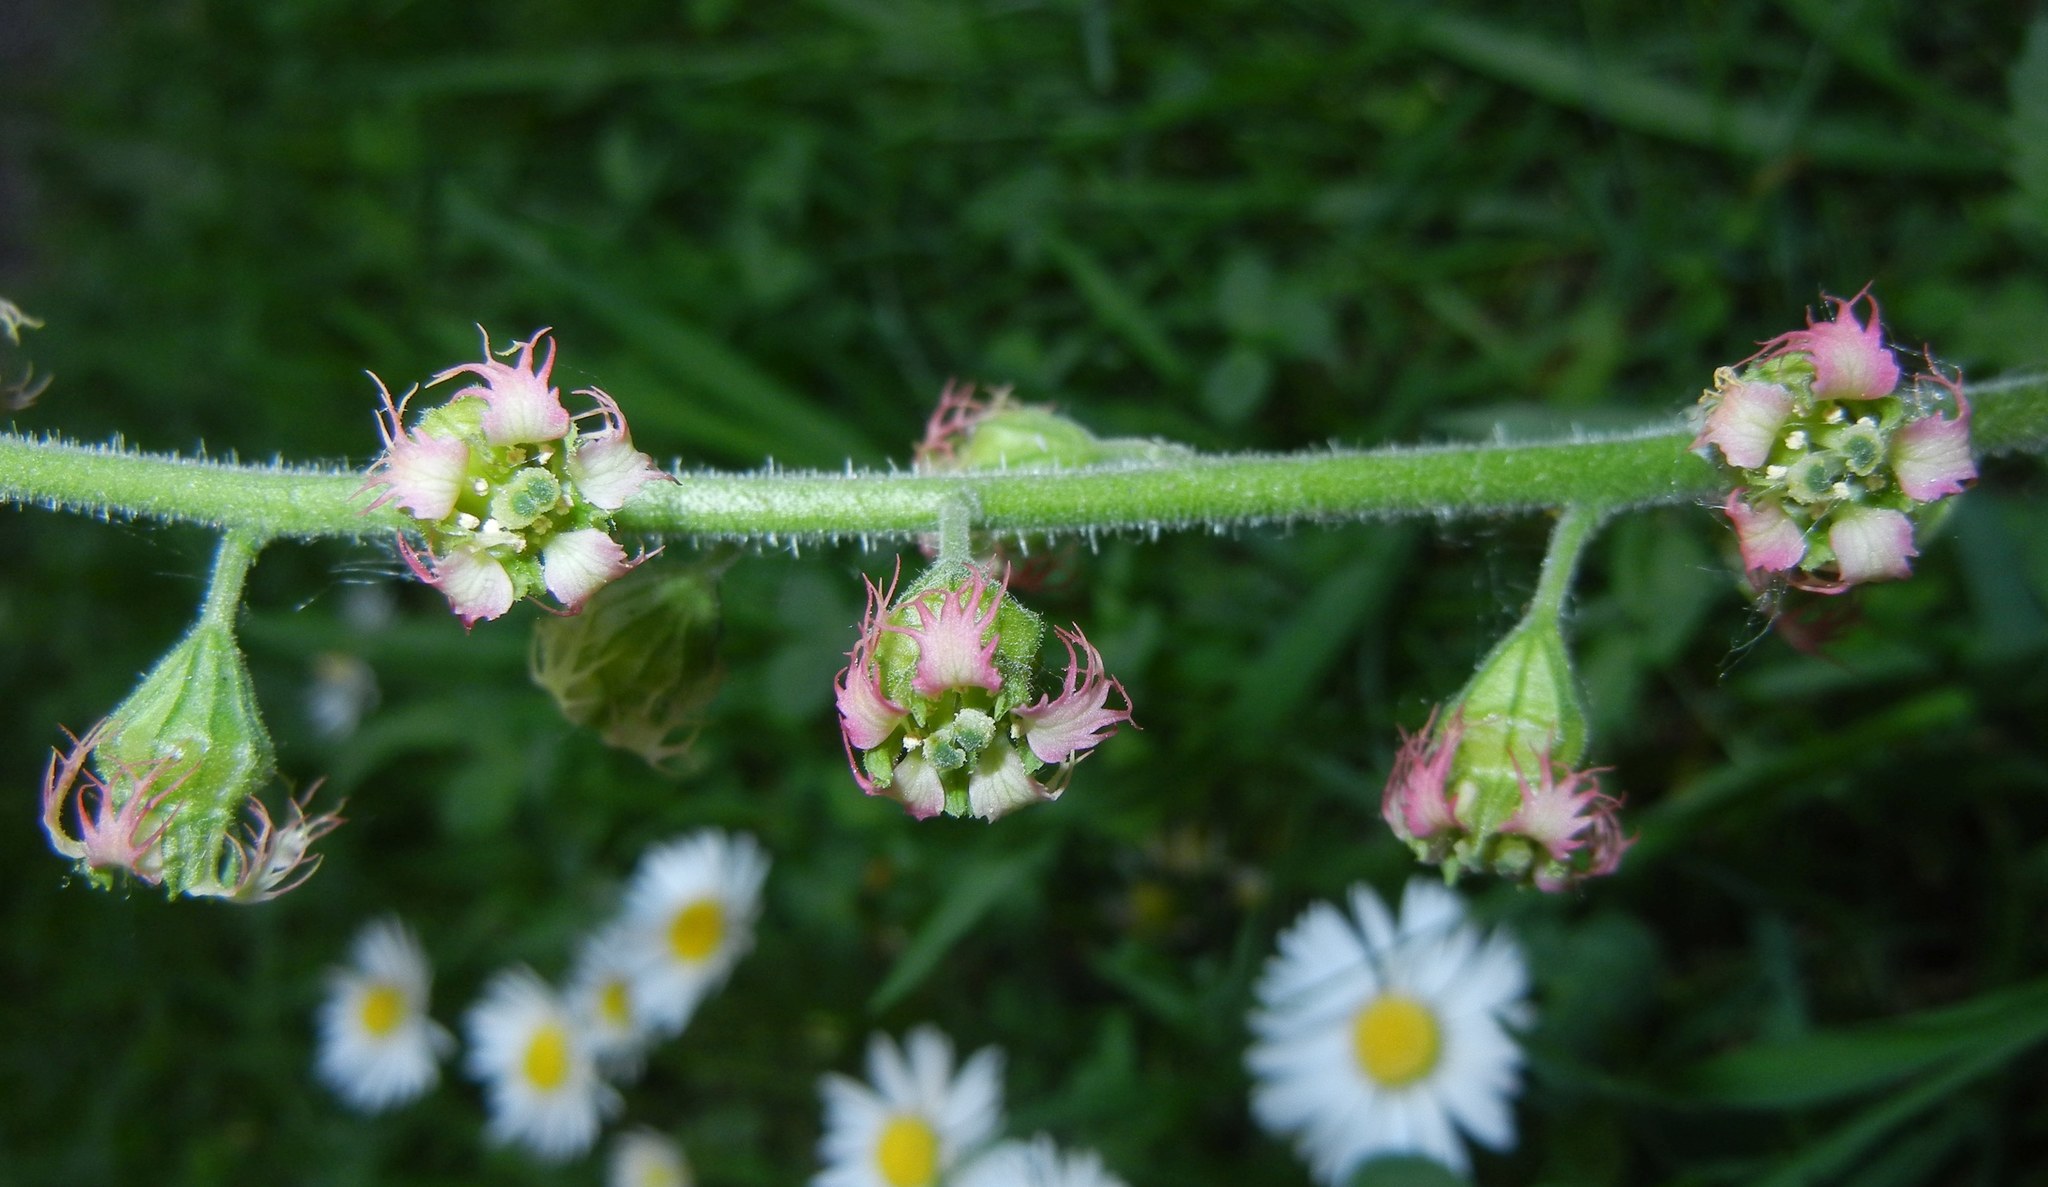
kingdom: Plantae
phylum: Tracheophyta
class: Magnoliopsida
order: Saxifragales
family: Saxifragaceae
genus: Tellima
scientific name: Tellima grandiflora
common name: Fringecups
